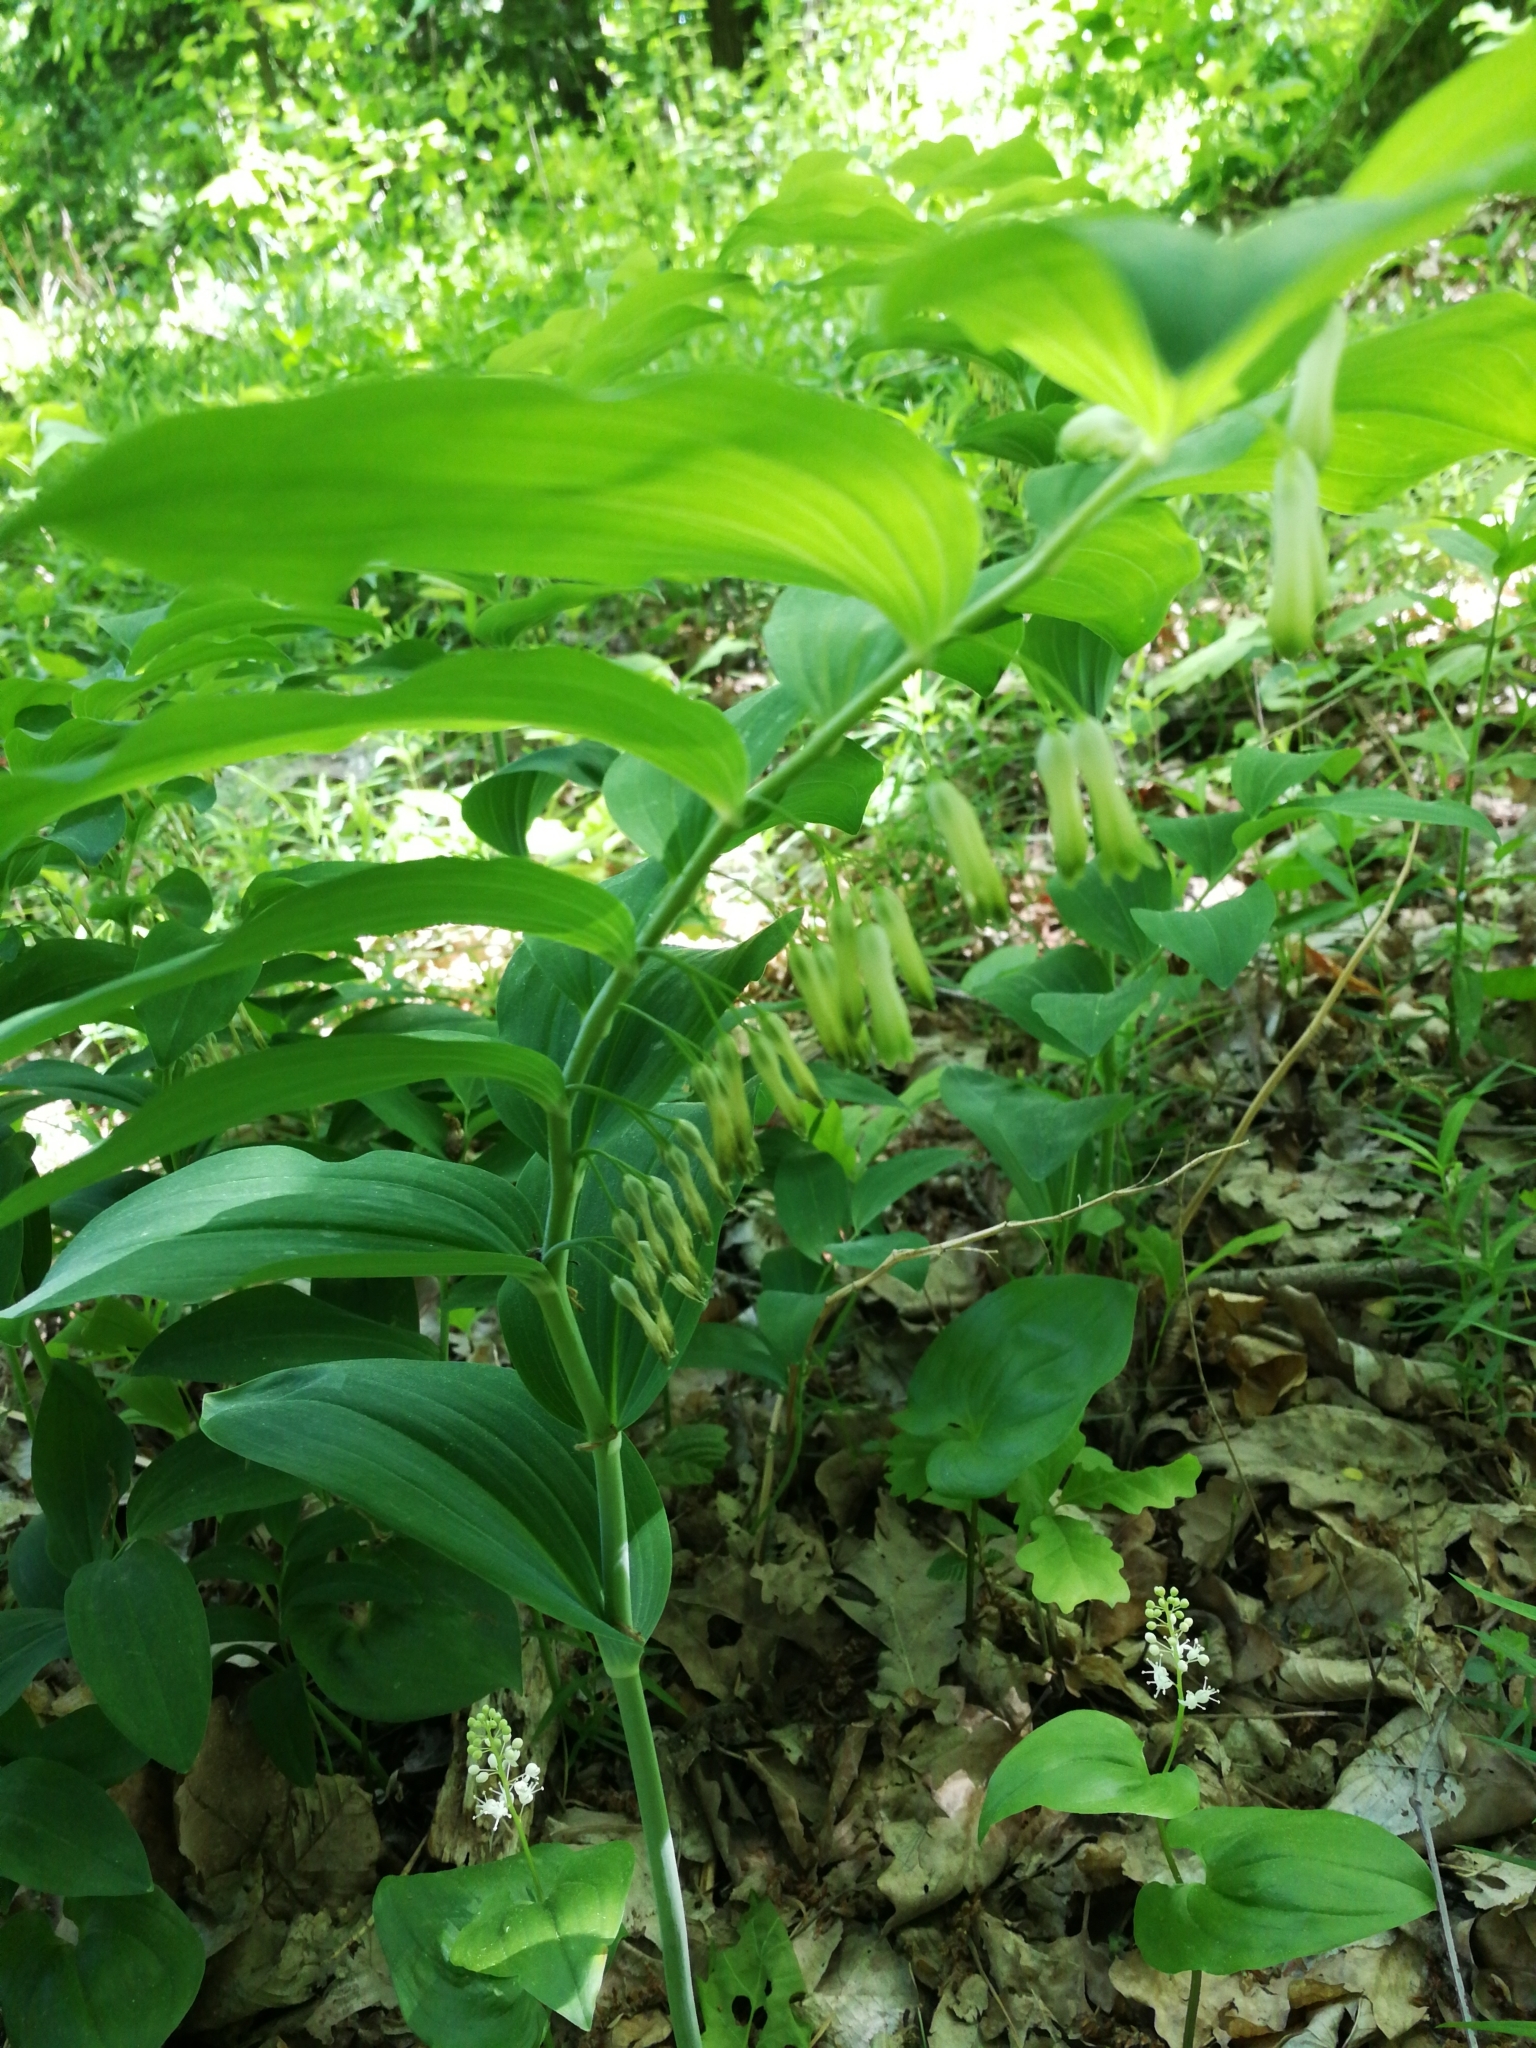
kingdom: Plantae
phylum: Tracheophyta
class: Liliopsida
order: Asparagales
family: Asparagaceae
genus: Polygonatum
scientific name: Polygonatum multiflorum
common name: Solomon's-seal
